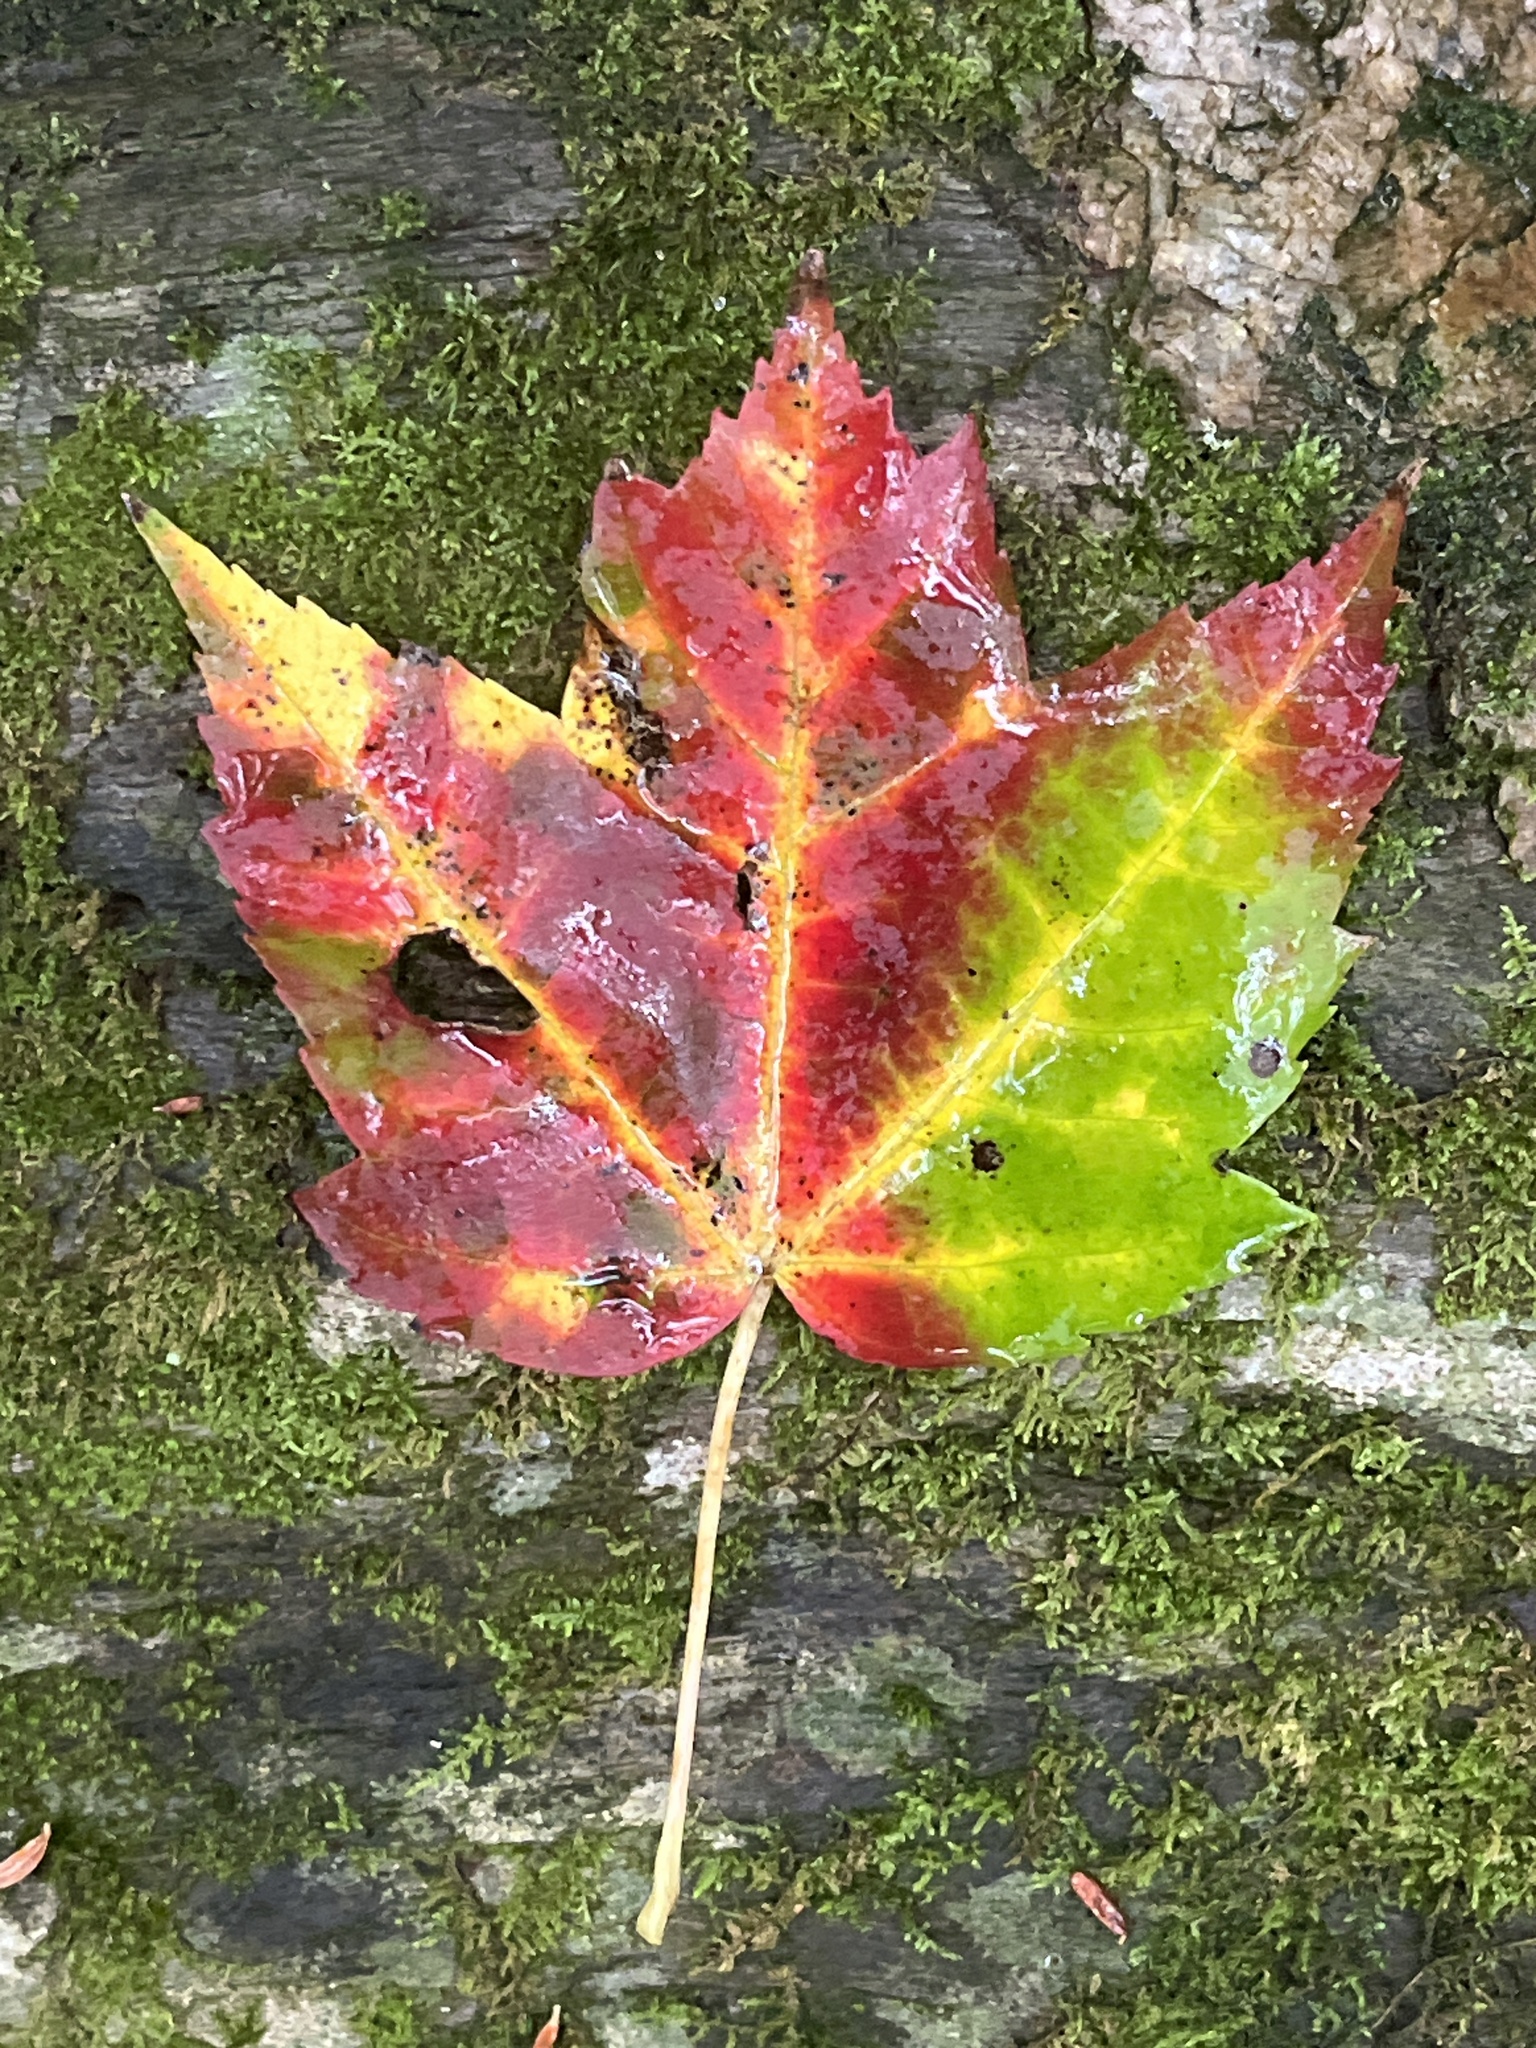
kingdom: Plantae
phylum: Tracheophyta
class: Magnoliopsida
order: Sapindales
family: Sapindaceae
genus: Acer
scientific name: Acer rubrum
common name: Red maple
